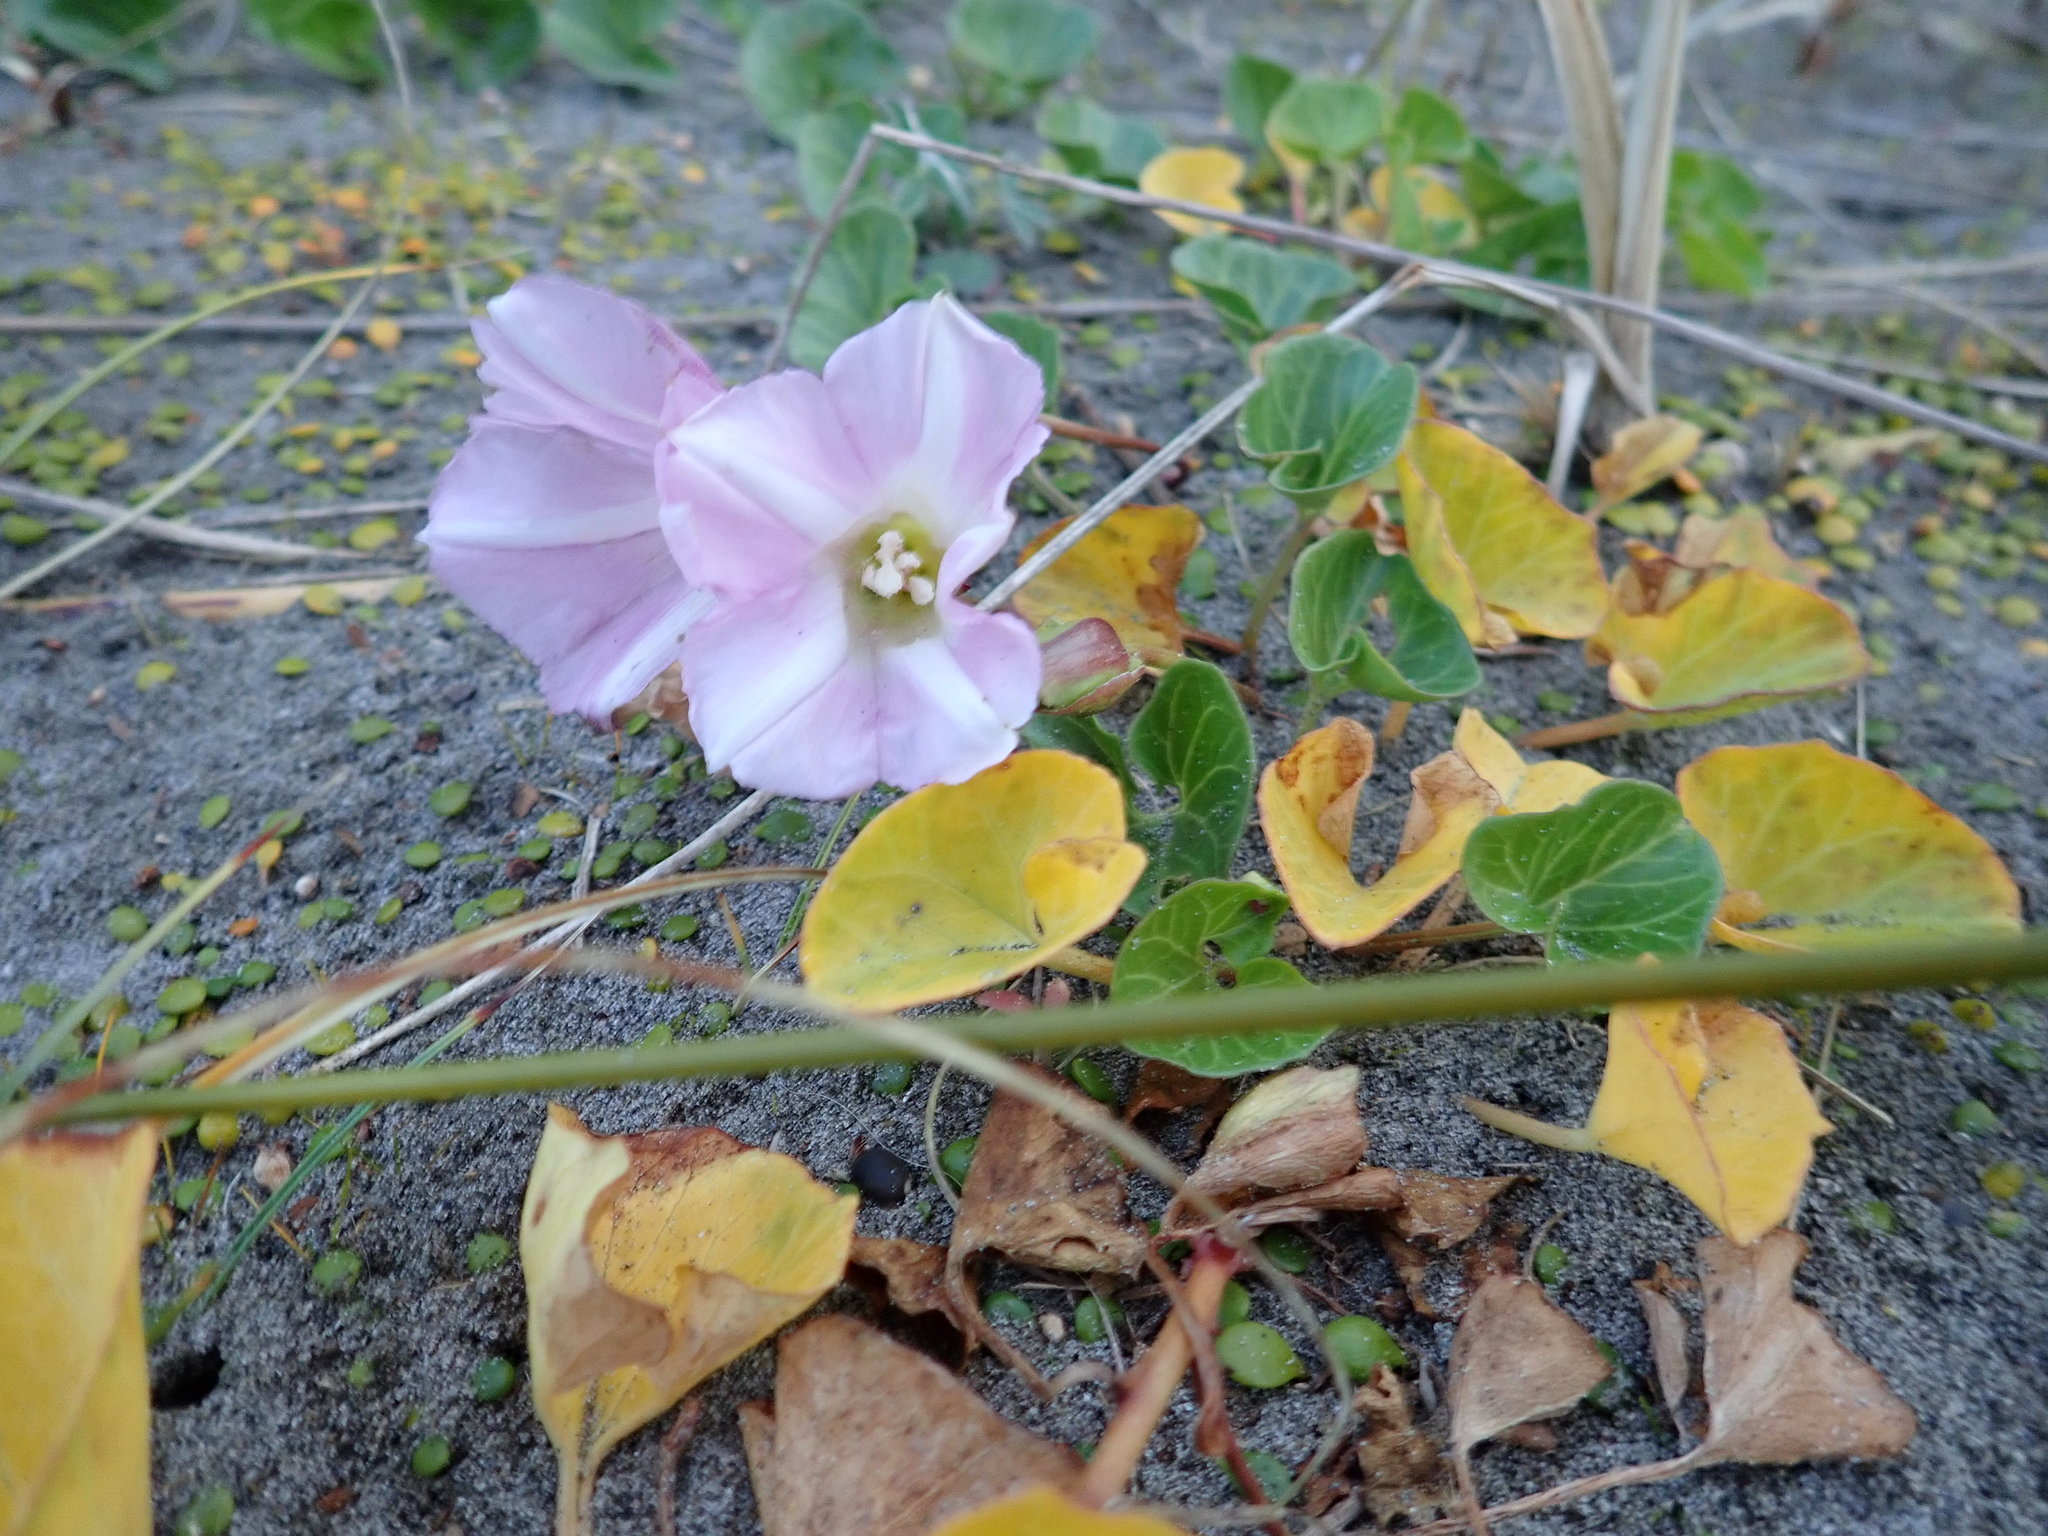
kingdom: Plantae
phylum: Tracheophyta
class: Magnoliopsida
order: Solanales
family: Convolvulaceae
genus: Calystegia
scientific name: Calystegia soldanella
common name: Sea bindweed
